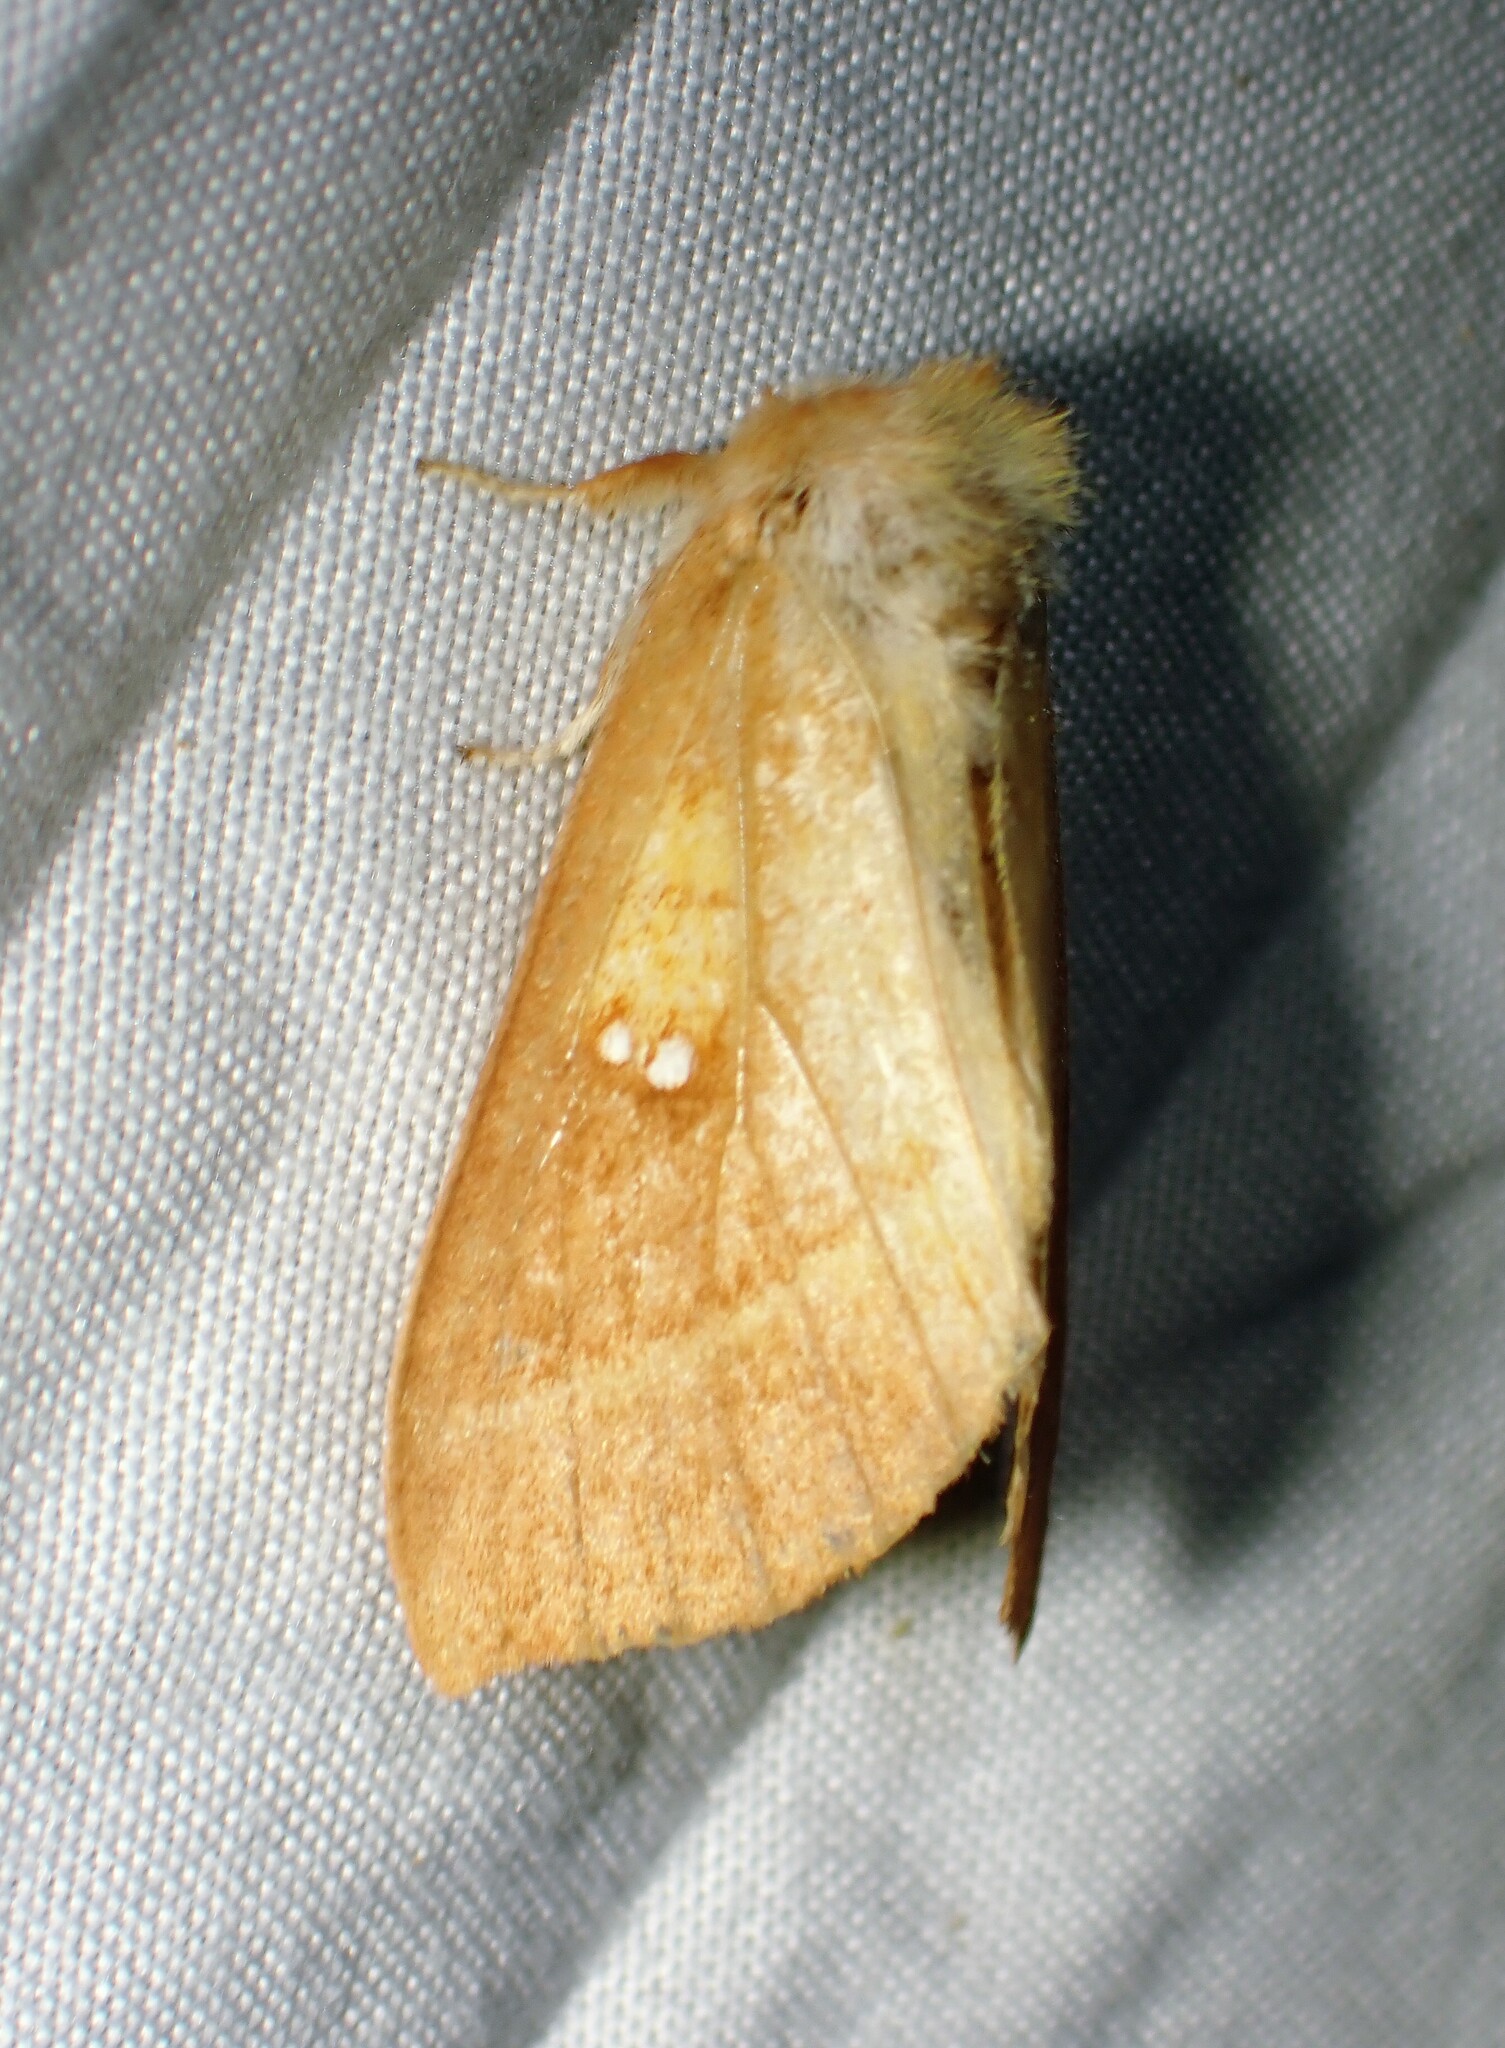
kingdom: Animalia
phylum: Arthropoda
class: Insecta
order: Lepidoptera
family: Notodontidae
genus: Nadata
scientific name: Nadata gibbosa
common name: White-dotted prominent
